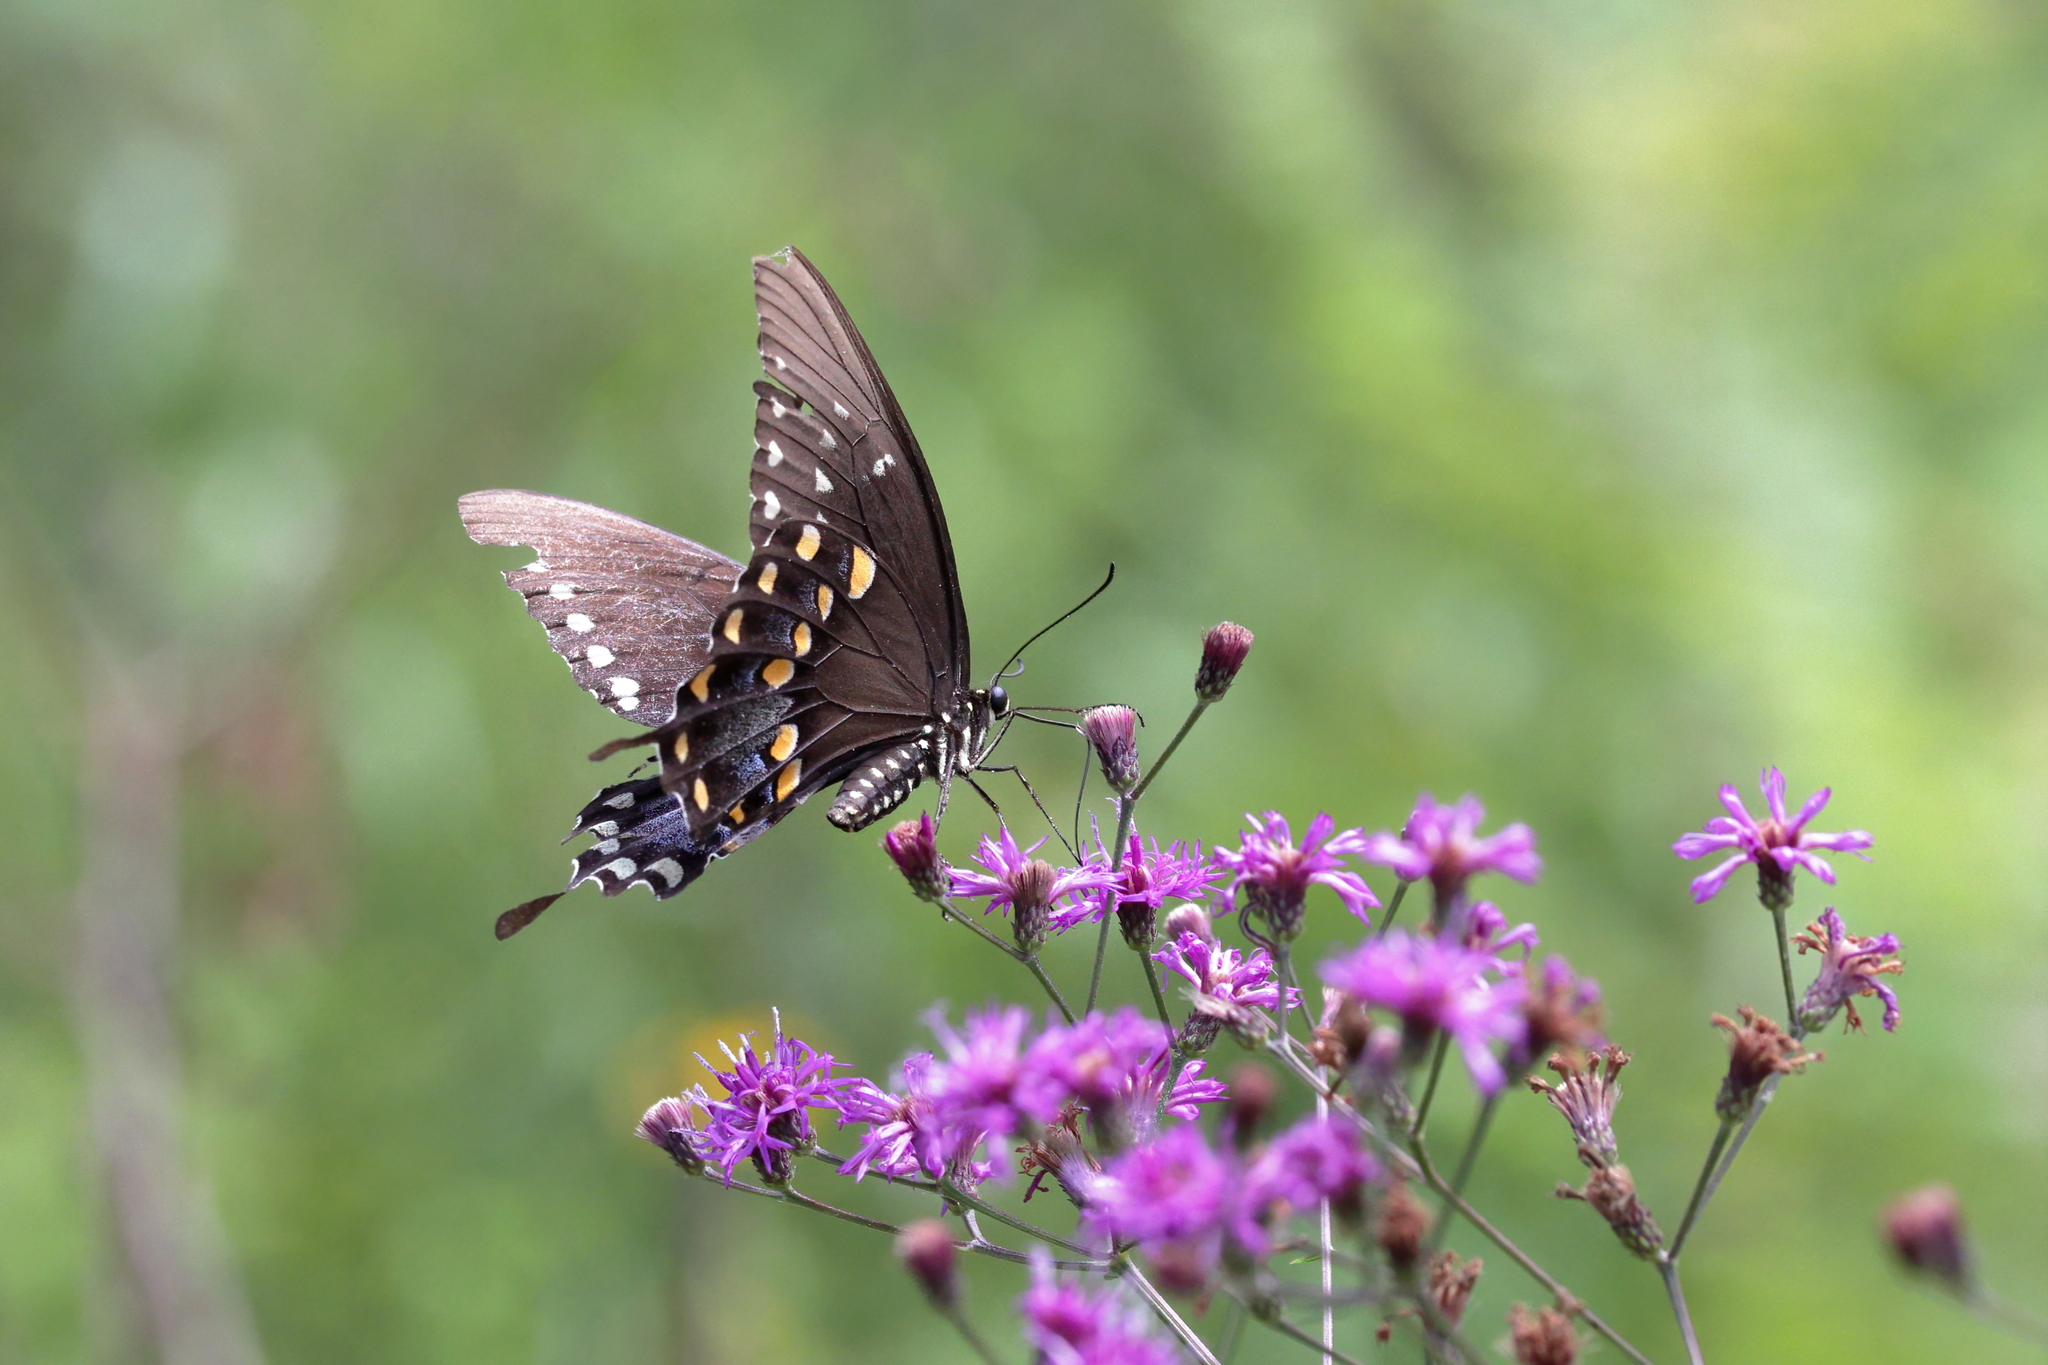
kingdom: Animalia
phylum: Arthropoda
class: Insecta
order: Lepidoptera
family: Papilionidae
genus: Papilio
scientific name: Papilio troilus
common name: Spicebush swallowtail
